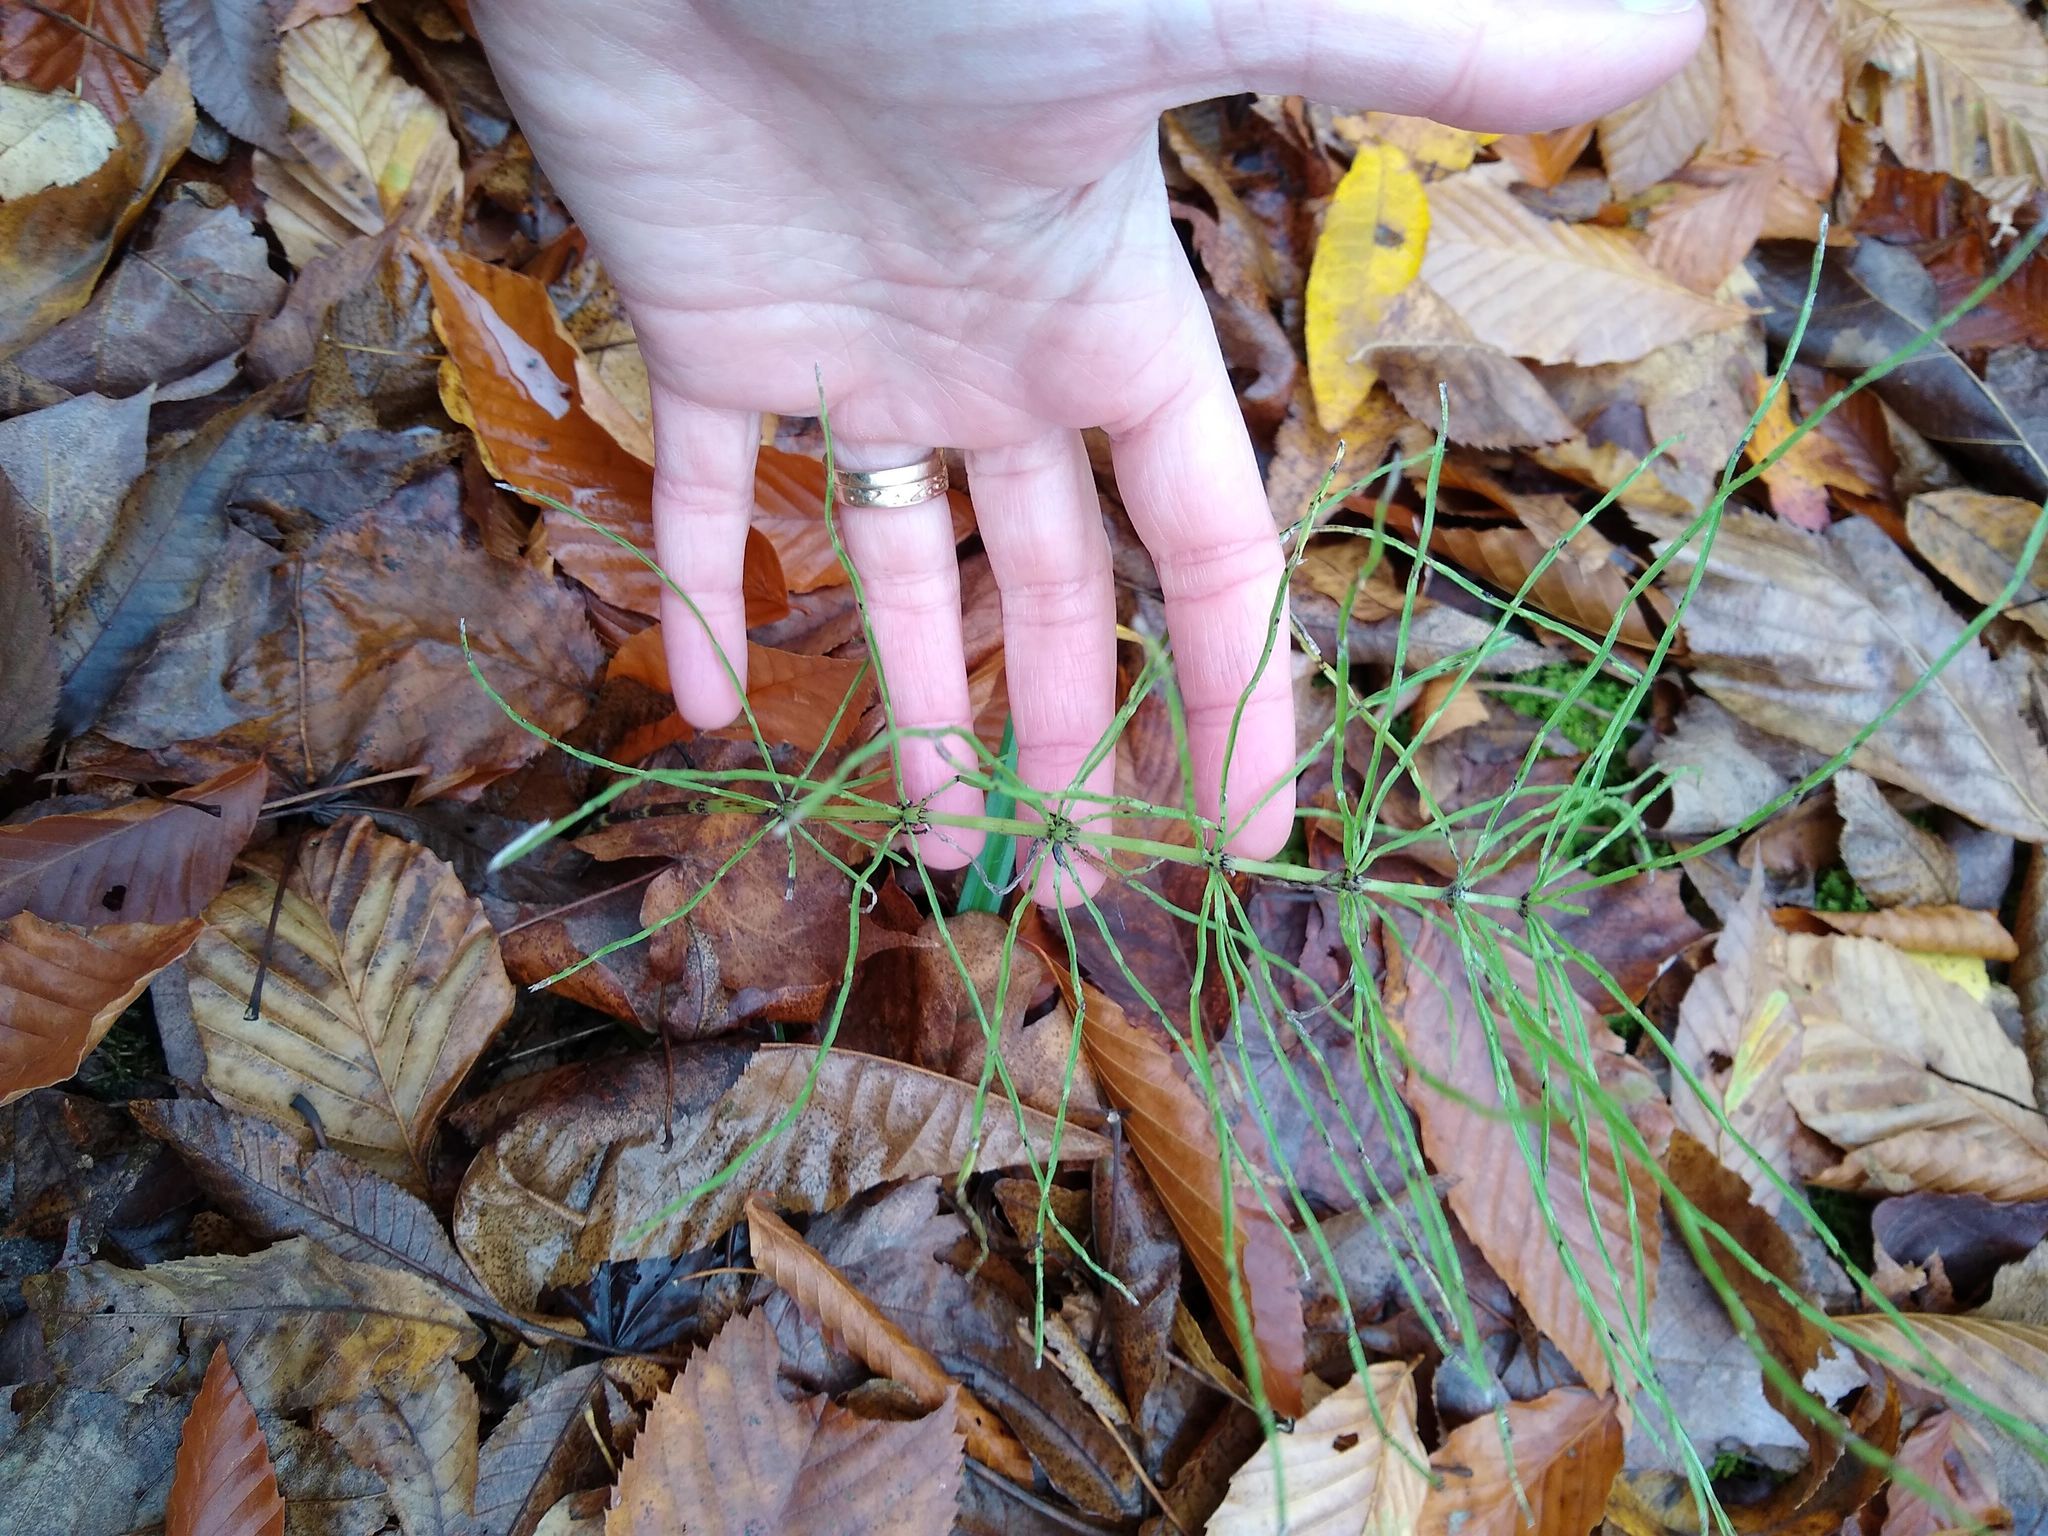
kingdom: Plantae
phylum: Tracheophyta
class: Polypodiopsida
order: Equisetales
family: Equisetaceae
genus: Equisetum
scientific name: Equisetum arvense
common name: Field horsetail
